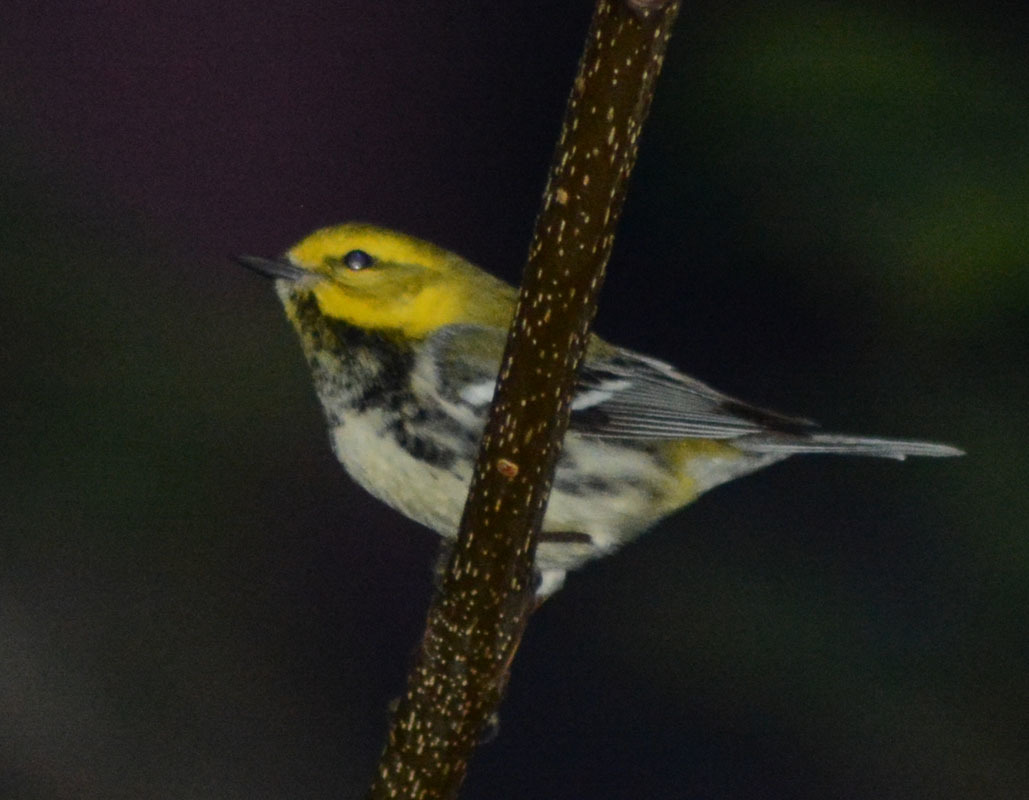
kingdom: Animalia
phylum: Chordata
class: Aves
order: Passeriformes
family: Parulidae
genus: Setophaga
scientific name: Setophaga virens
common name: Black-throated green warbler
